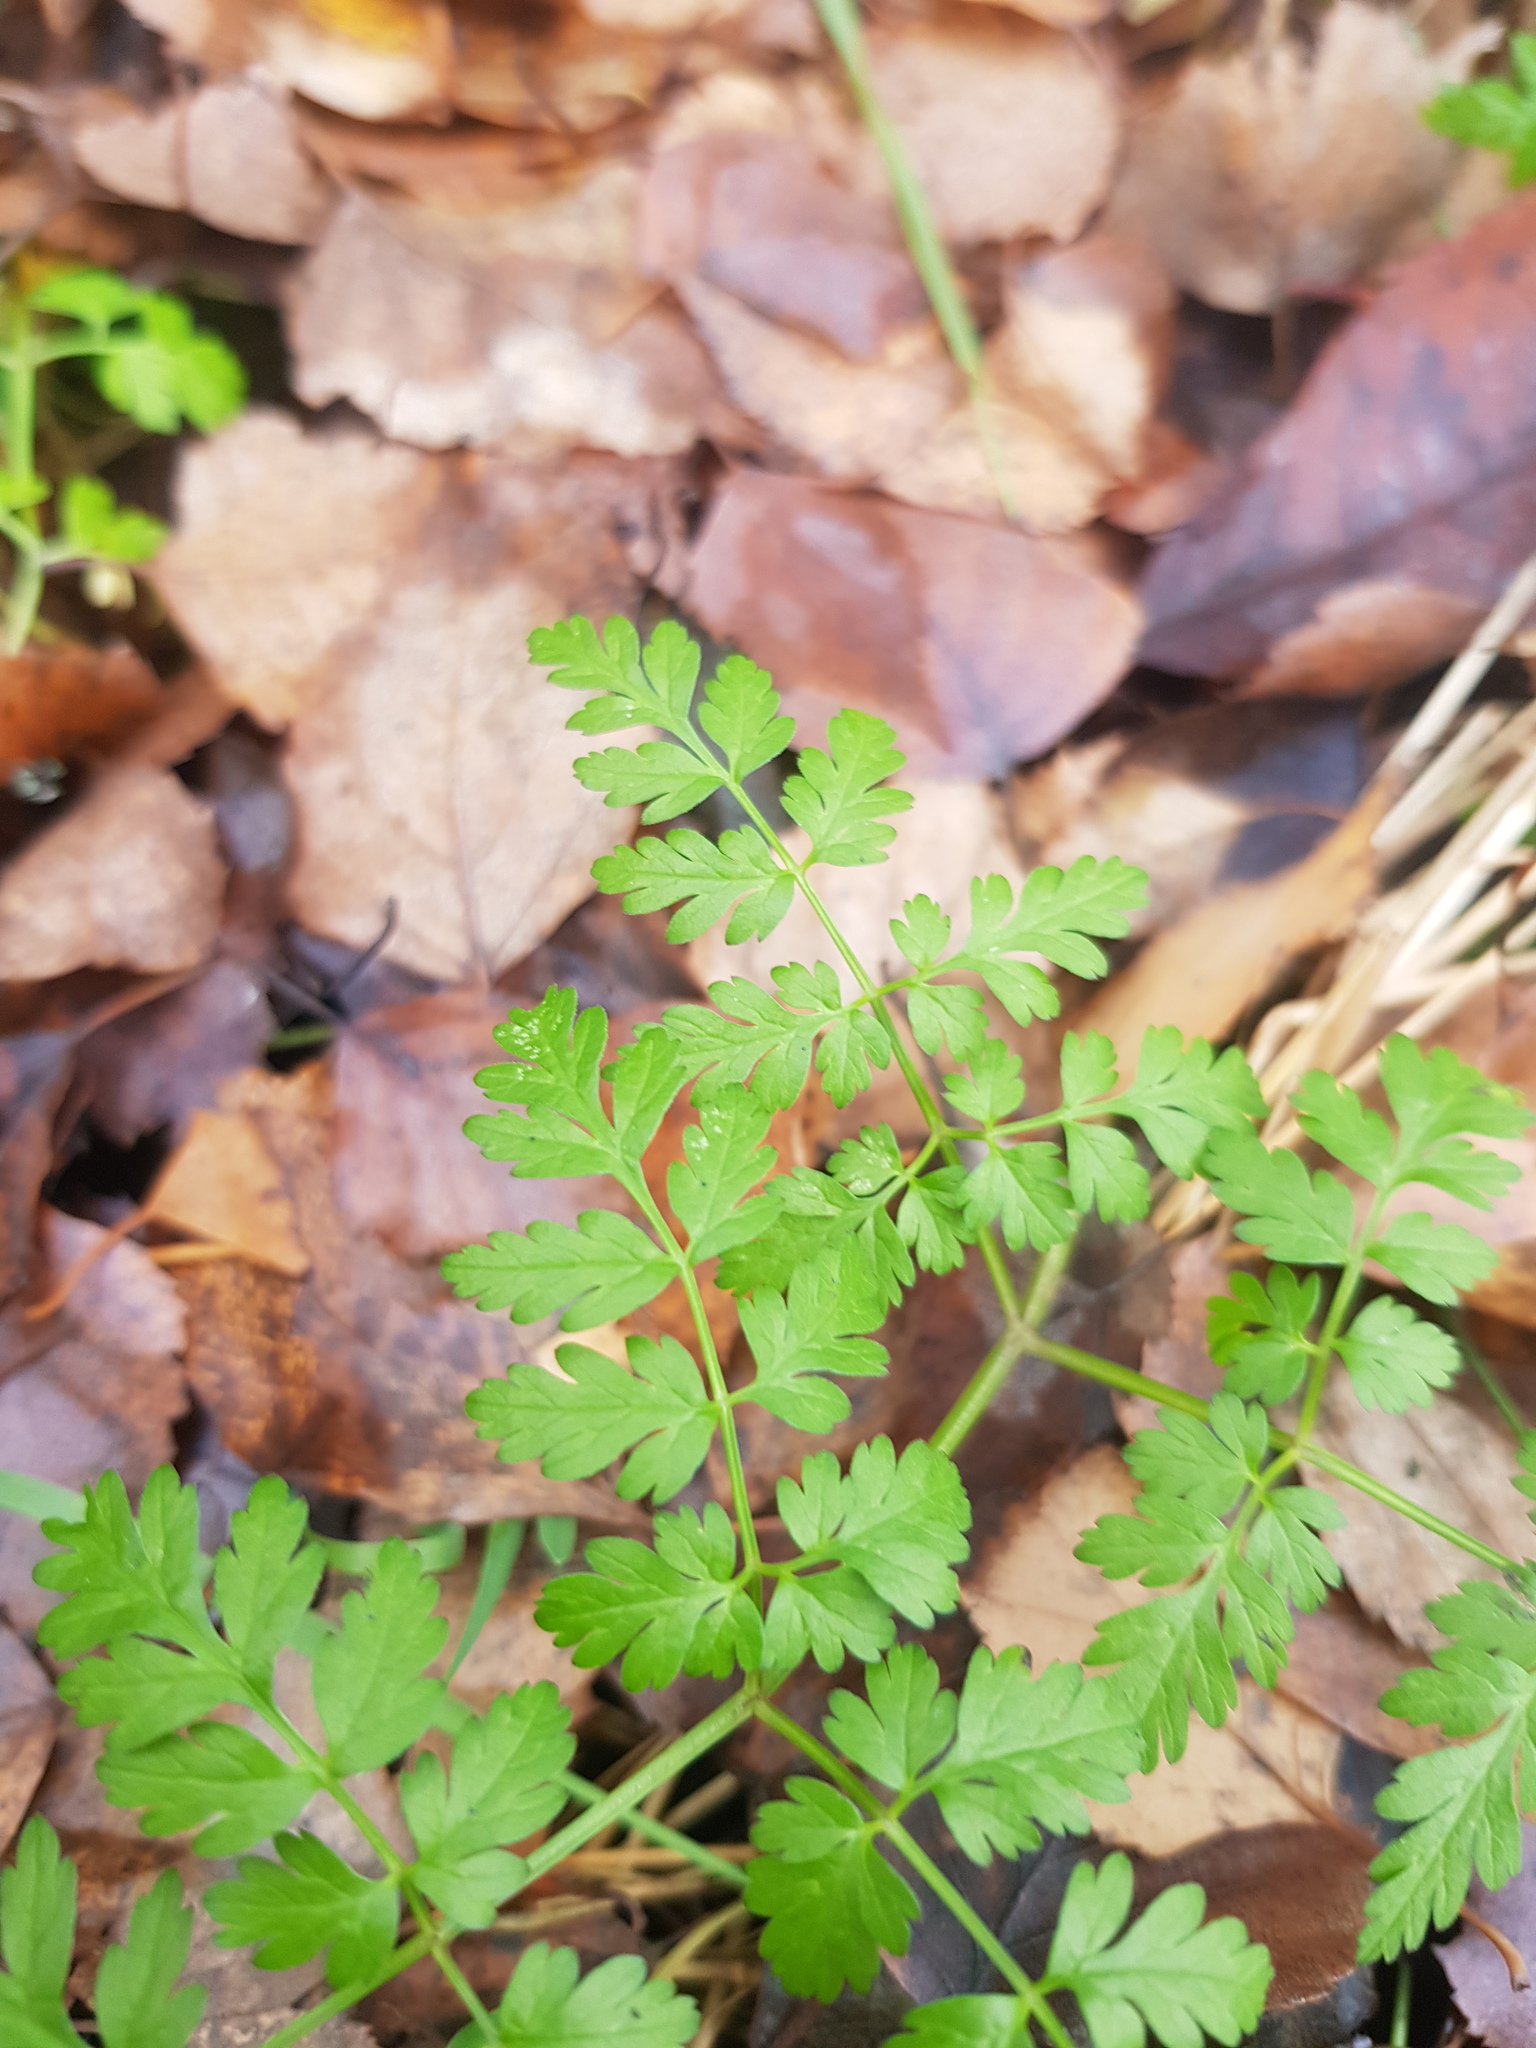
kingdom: Plantae
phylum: Tracheophyta
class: Magnoliopsida
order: Apiales
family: Apiaceae
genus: Anthriscus
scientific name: Anthriscus sylvestris
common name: Cow parsley
